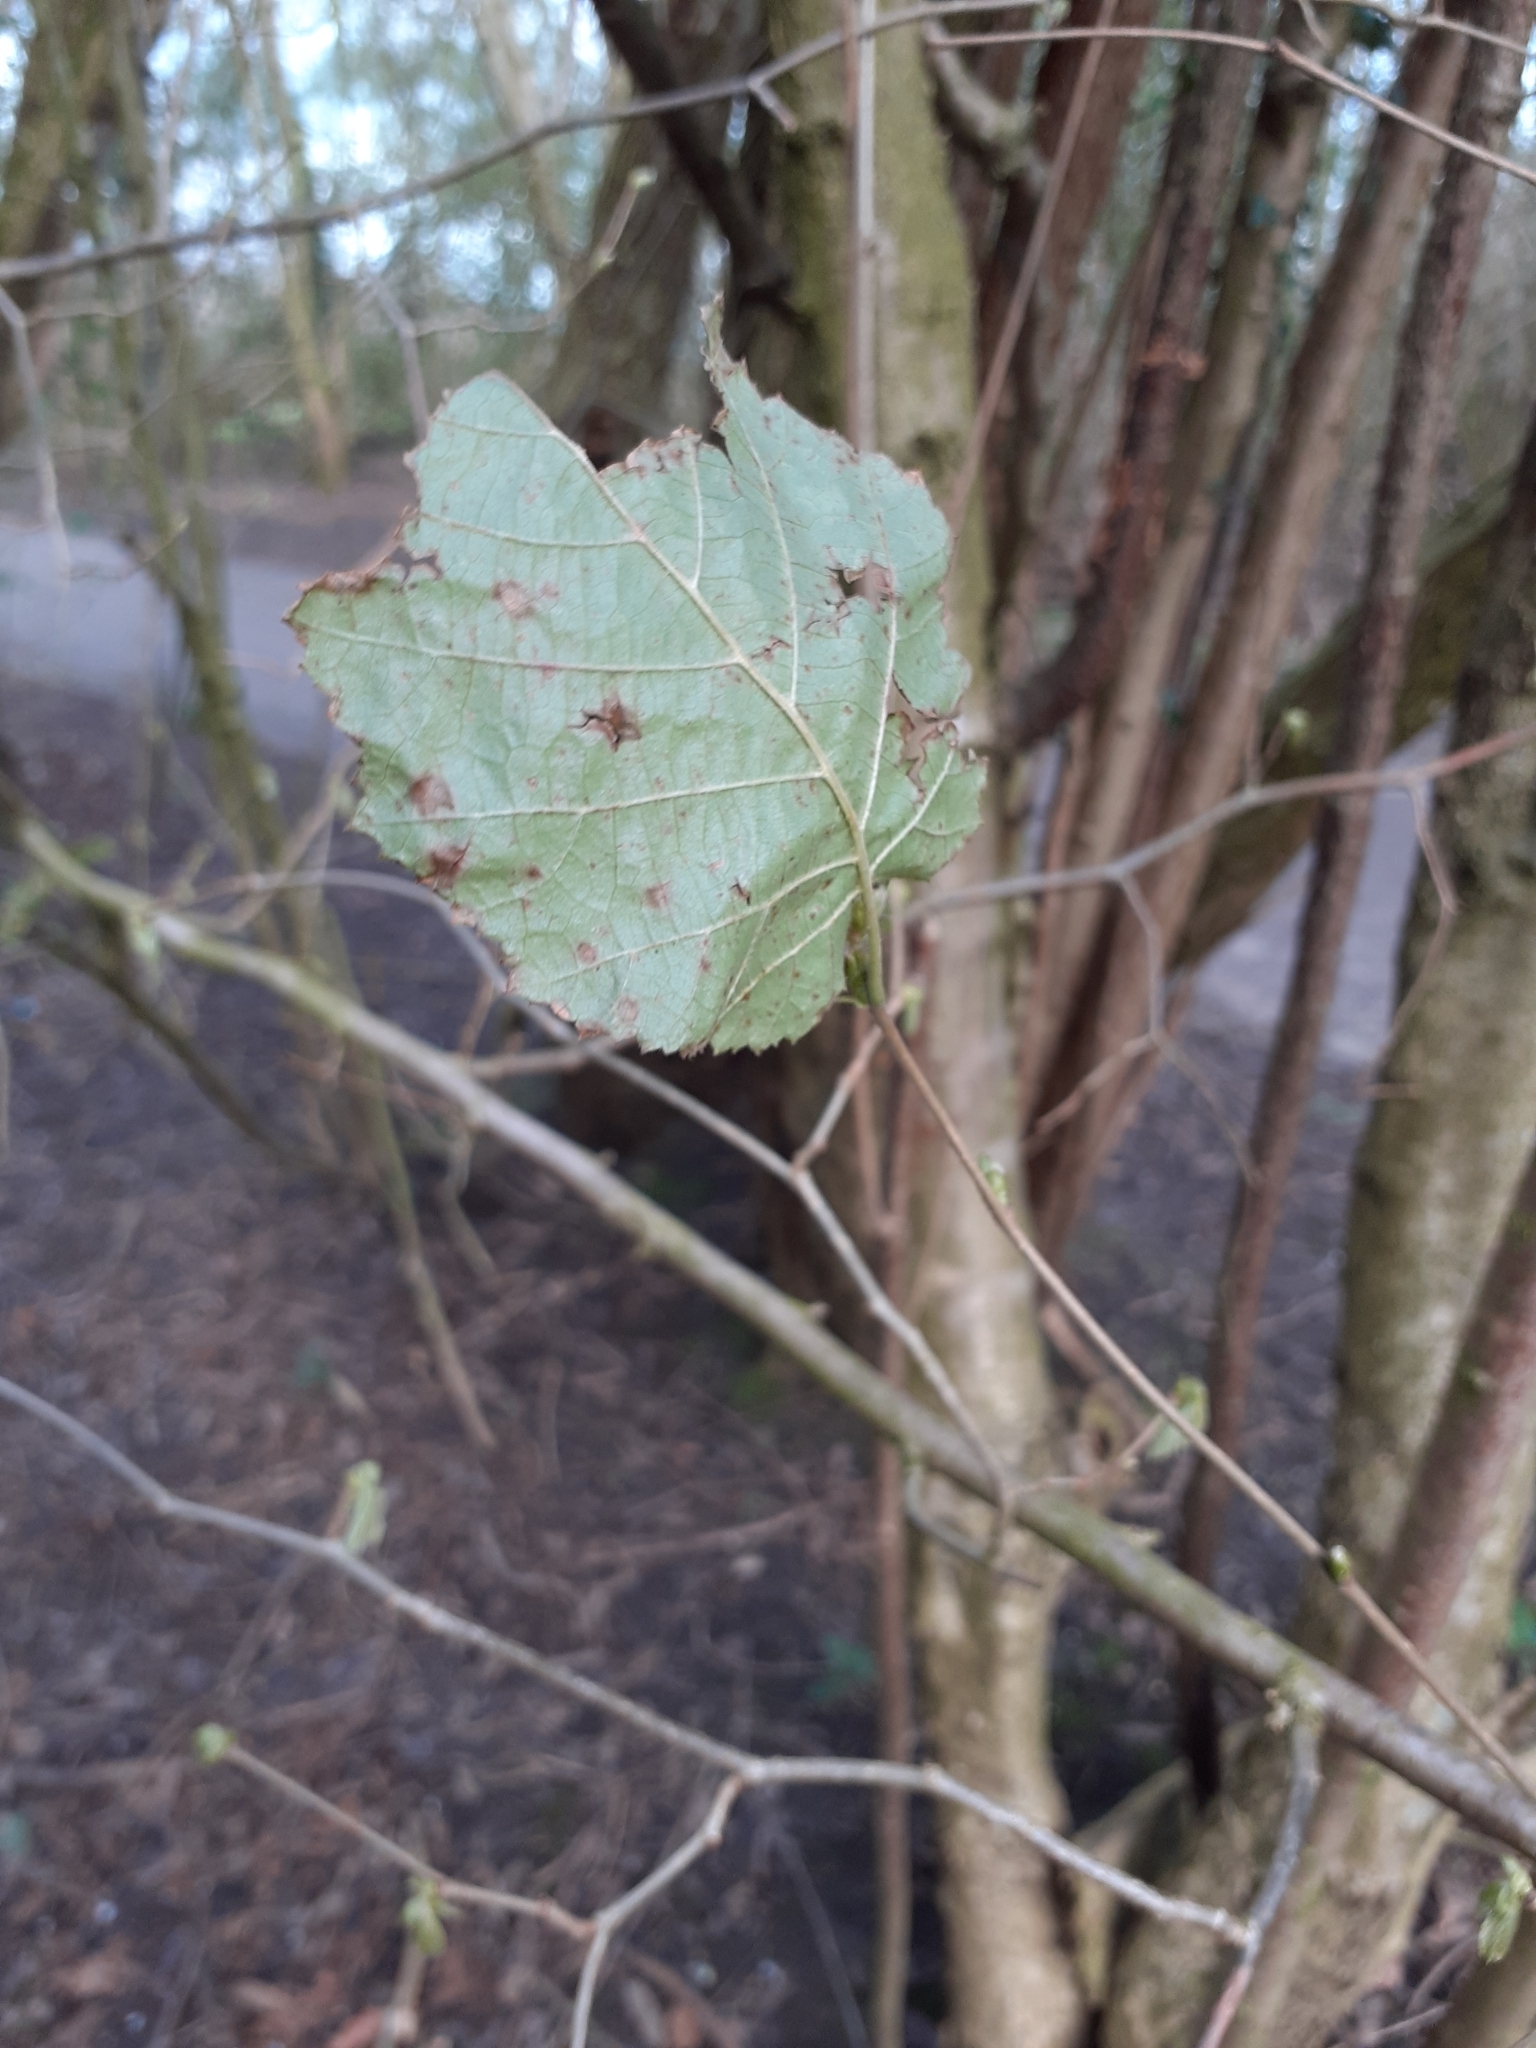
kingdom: Plantae
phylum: Tracheophyta
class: Magnoliopsida
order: Fagales
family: Betulaceae
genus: Corylus
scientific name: Corylus avellana
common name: European hazel
